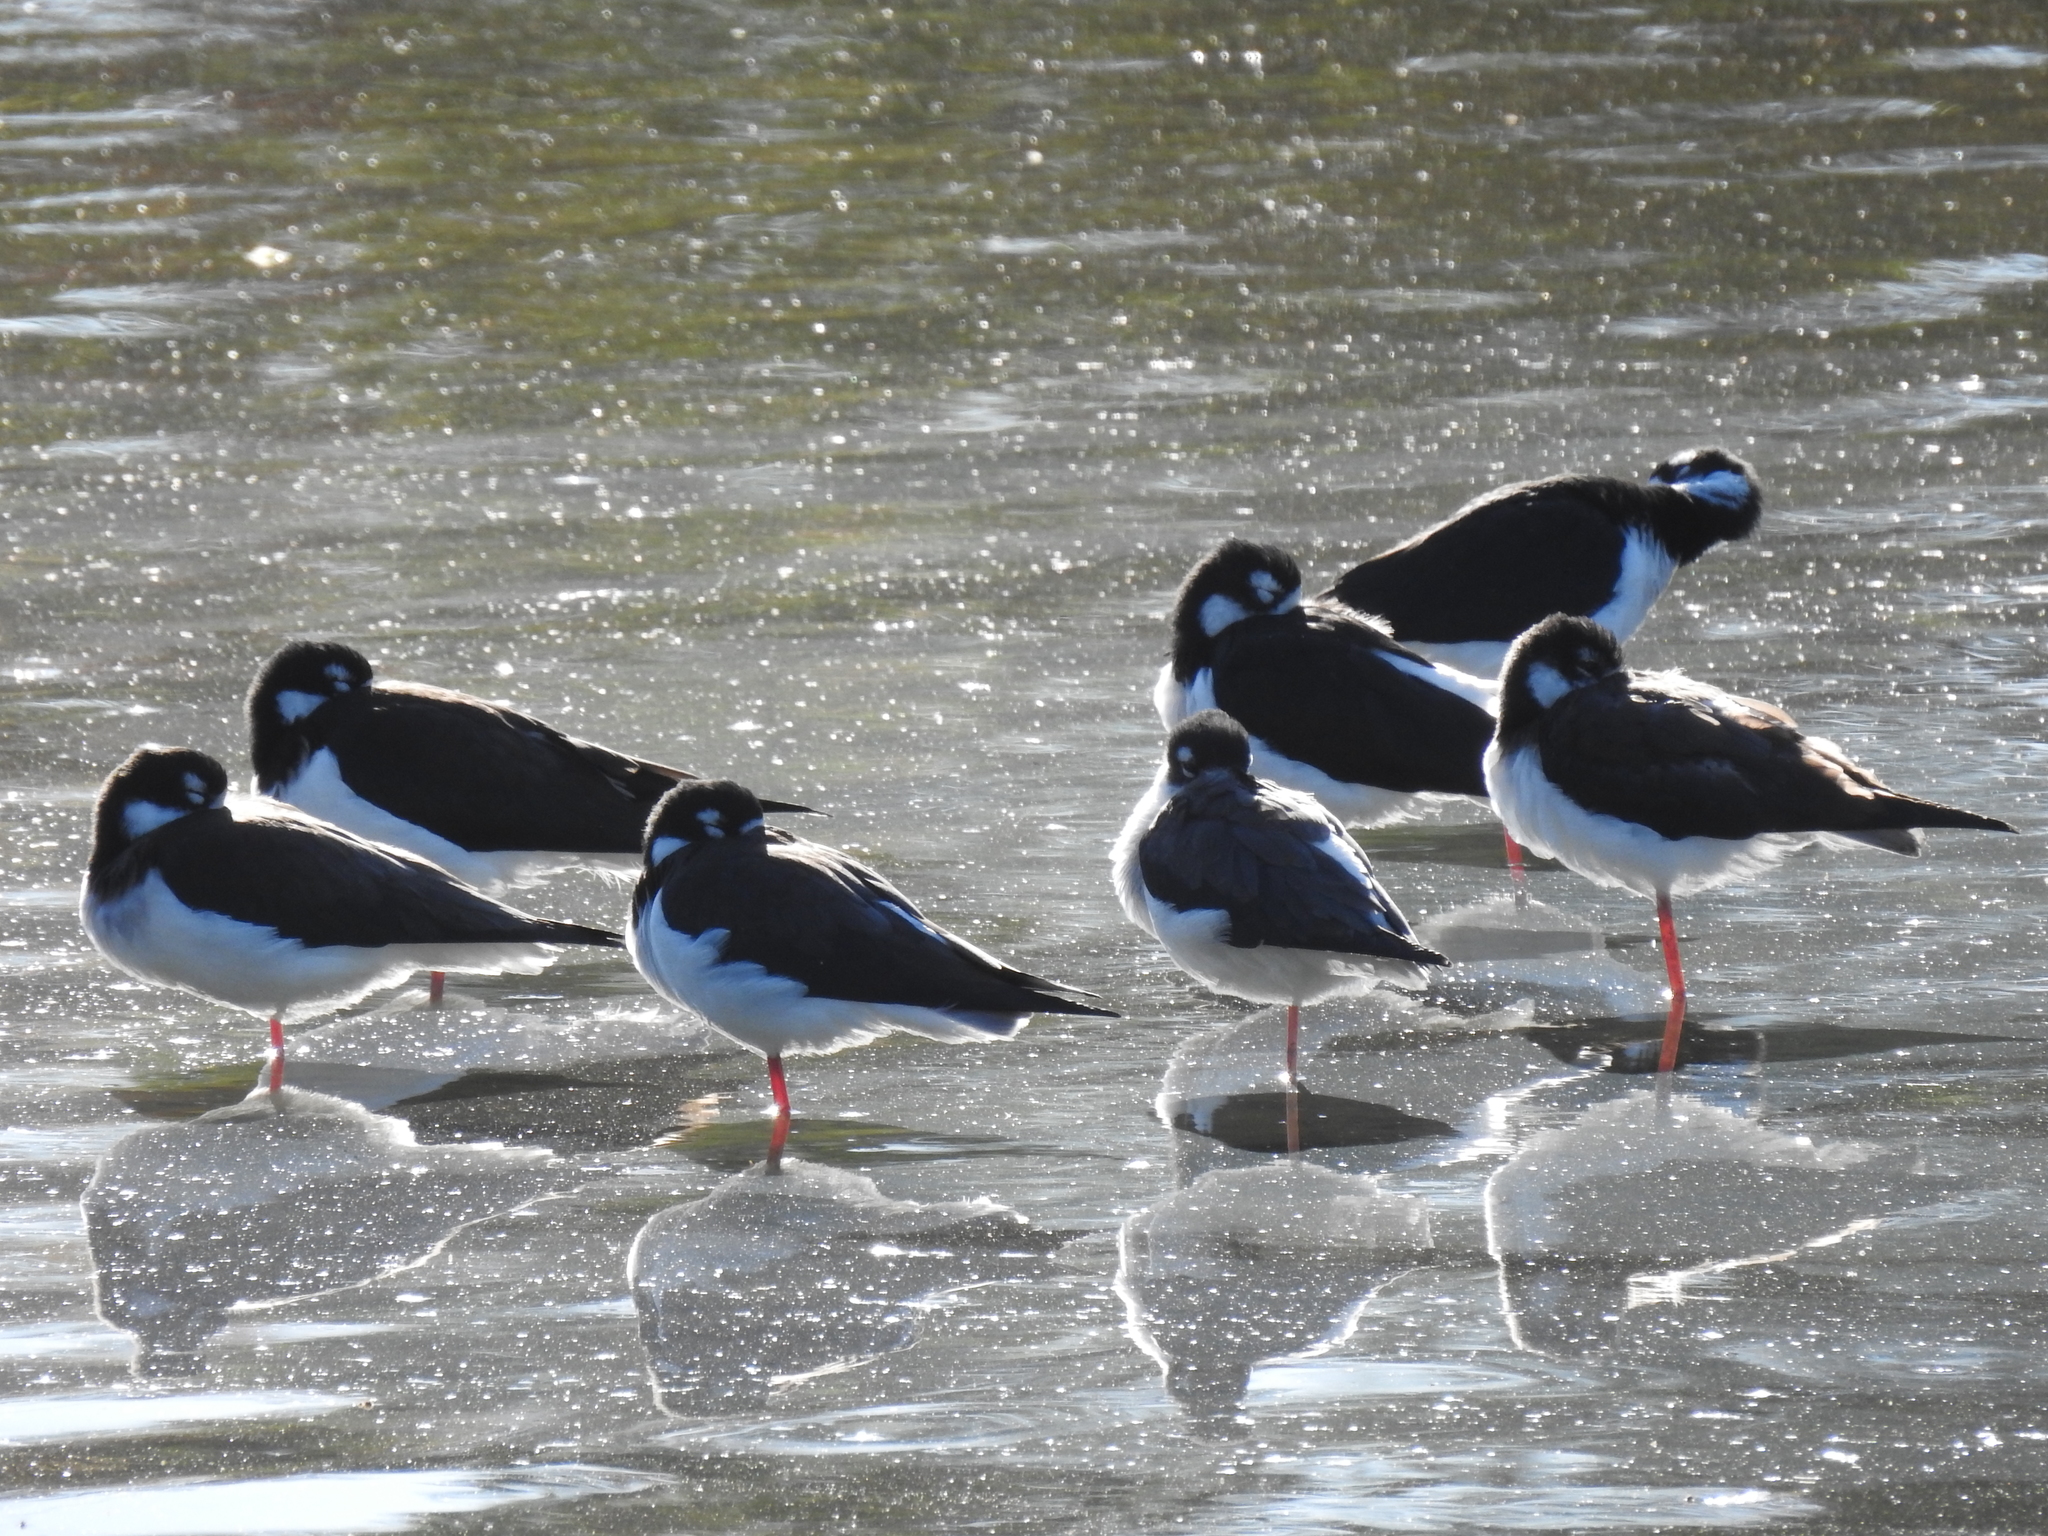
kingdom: Animalia
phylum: Chordata
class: Aves
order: Charadriiformes
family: Recurvirostridae
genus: Himantopus
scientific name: Himantopus mexicanus
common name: Black-necked stilt
